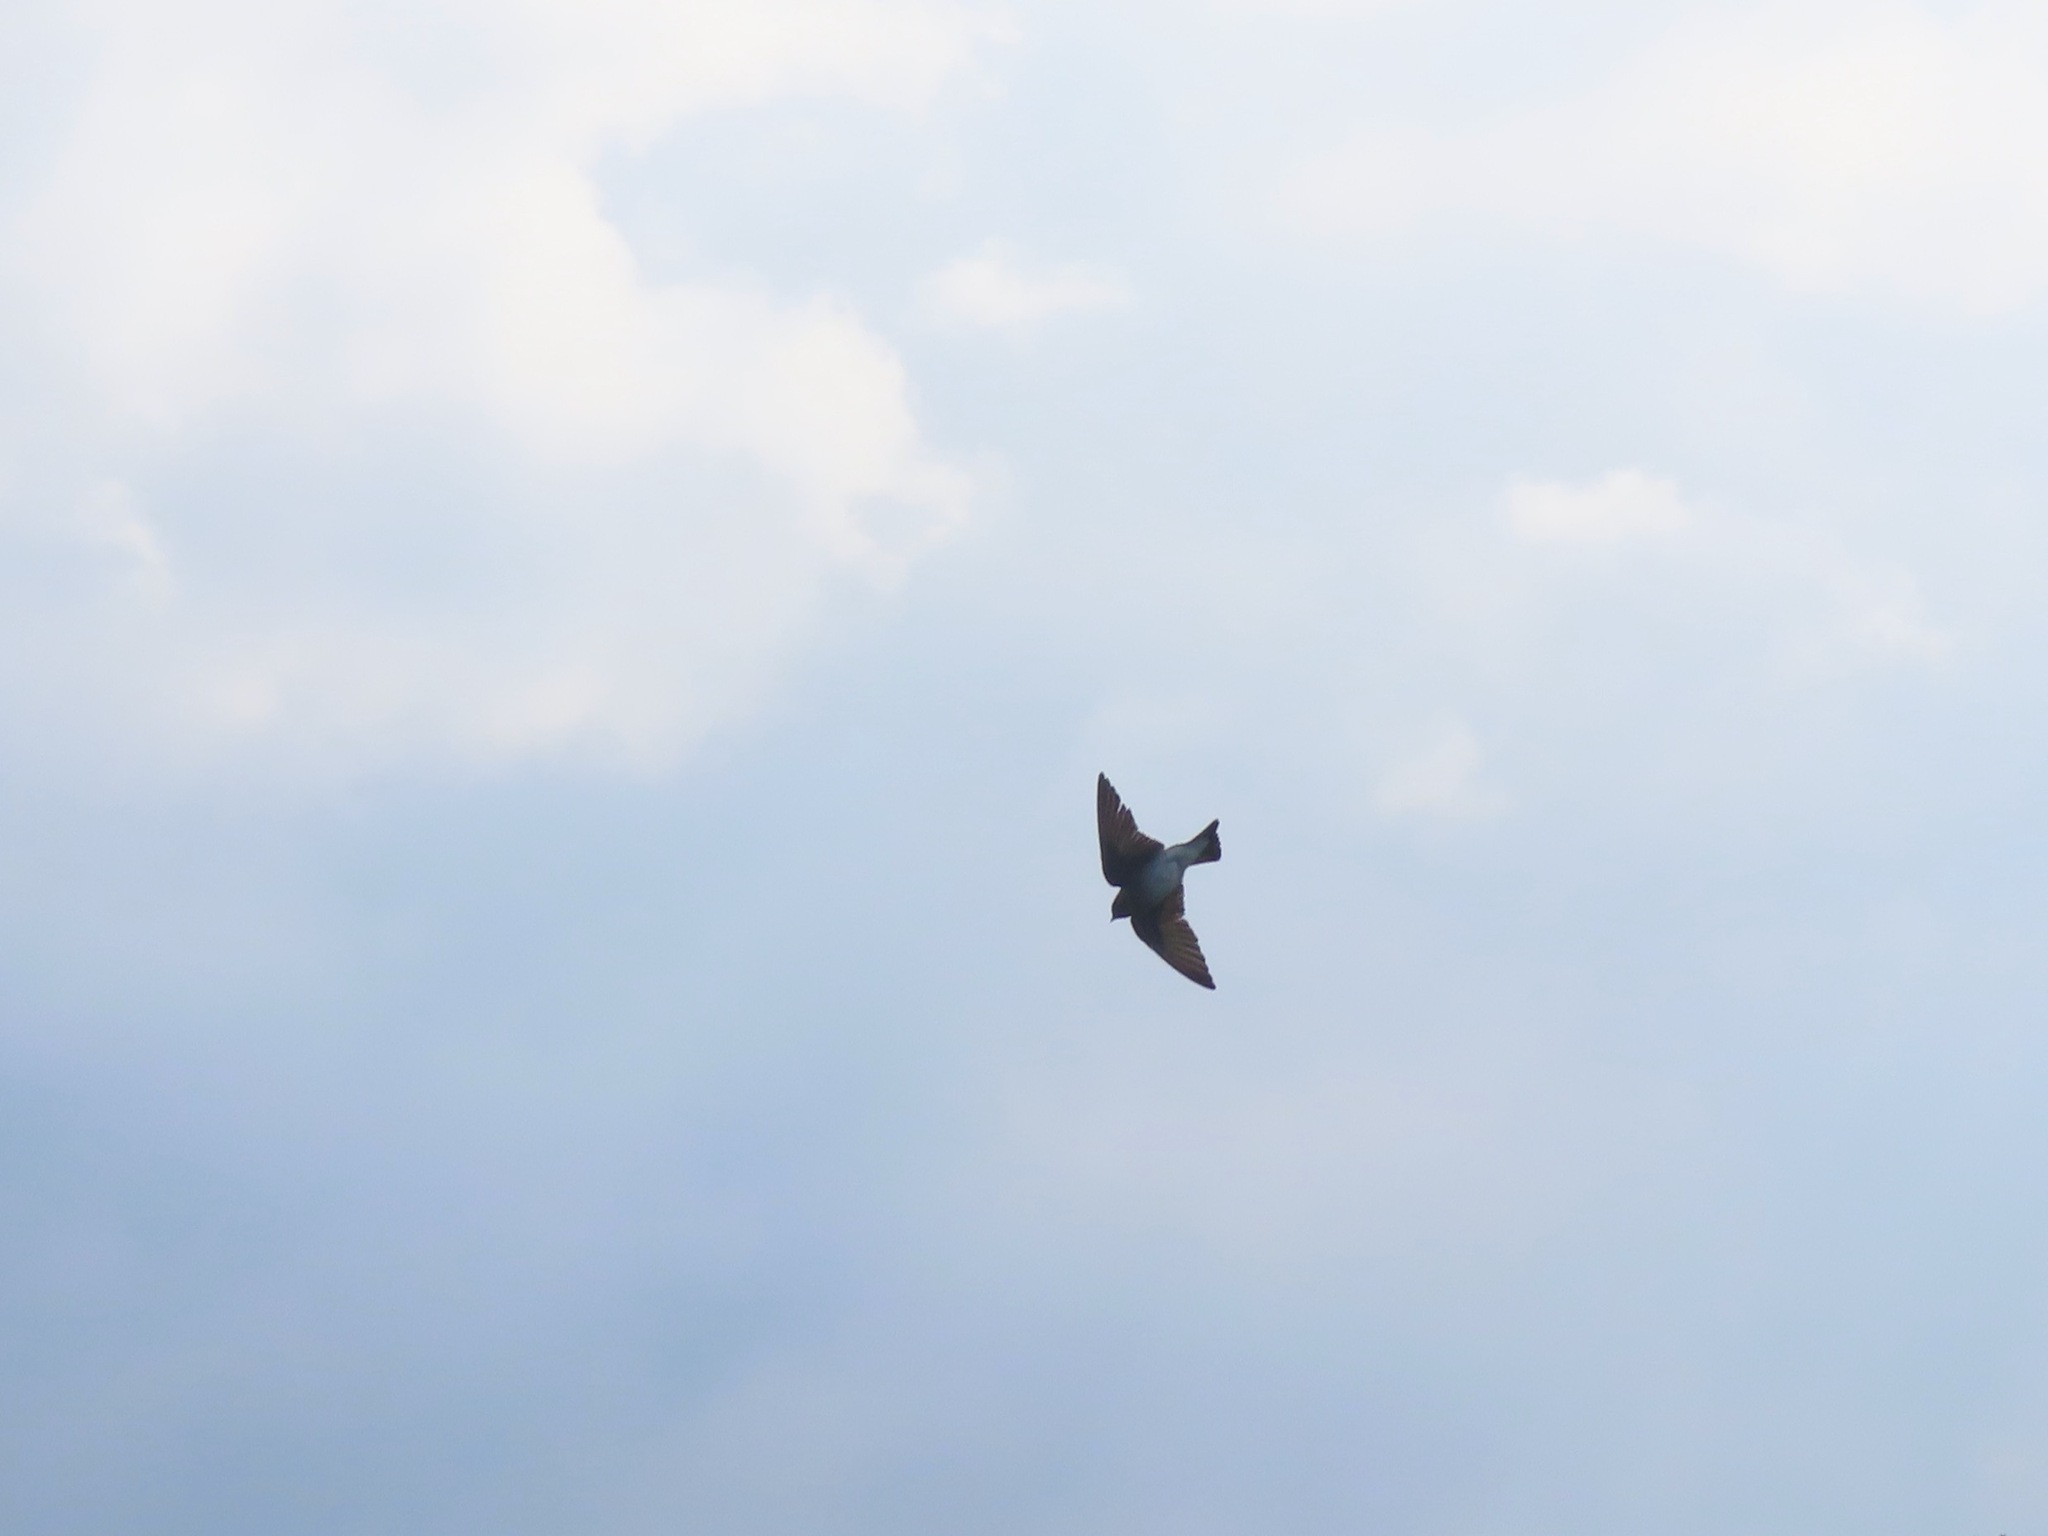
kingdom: Animalia
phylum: Chordata
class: Aves
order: Passeriformes
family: Hirundinidae
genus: Stelgidopteryx
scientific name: Stelgidopteryx serripennis
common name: Northern rough-winged swallow
